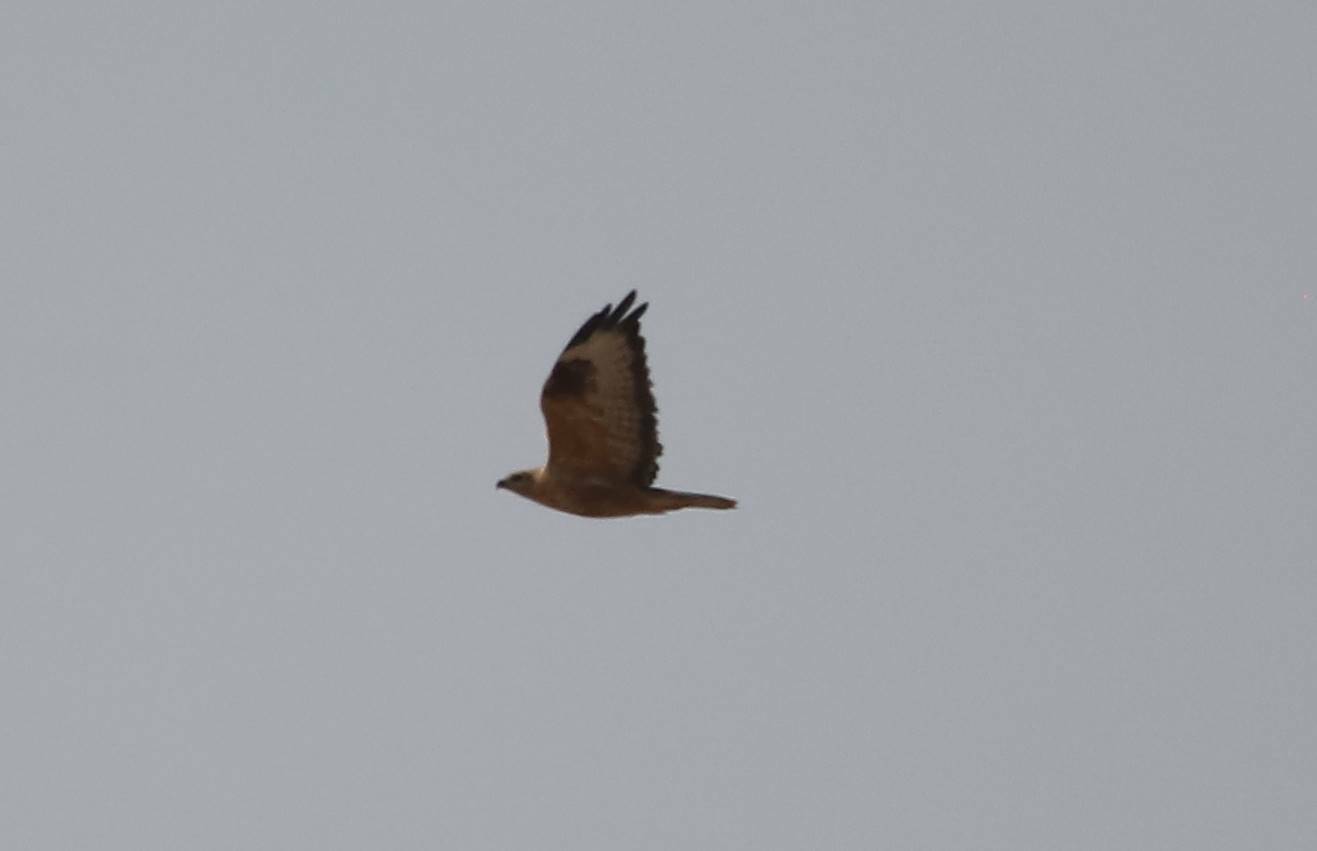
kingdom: Animalia
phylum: Chordata
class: Aves
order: Accipitriformes
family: Accipitridae
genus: Buteo
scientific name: Buteo rufinus
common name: Long-legged buzzard
